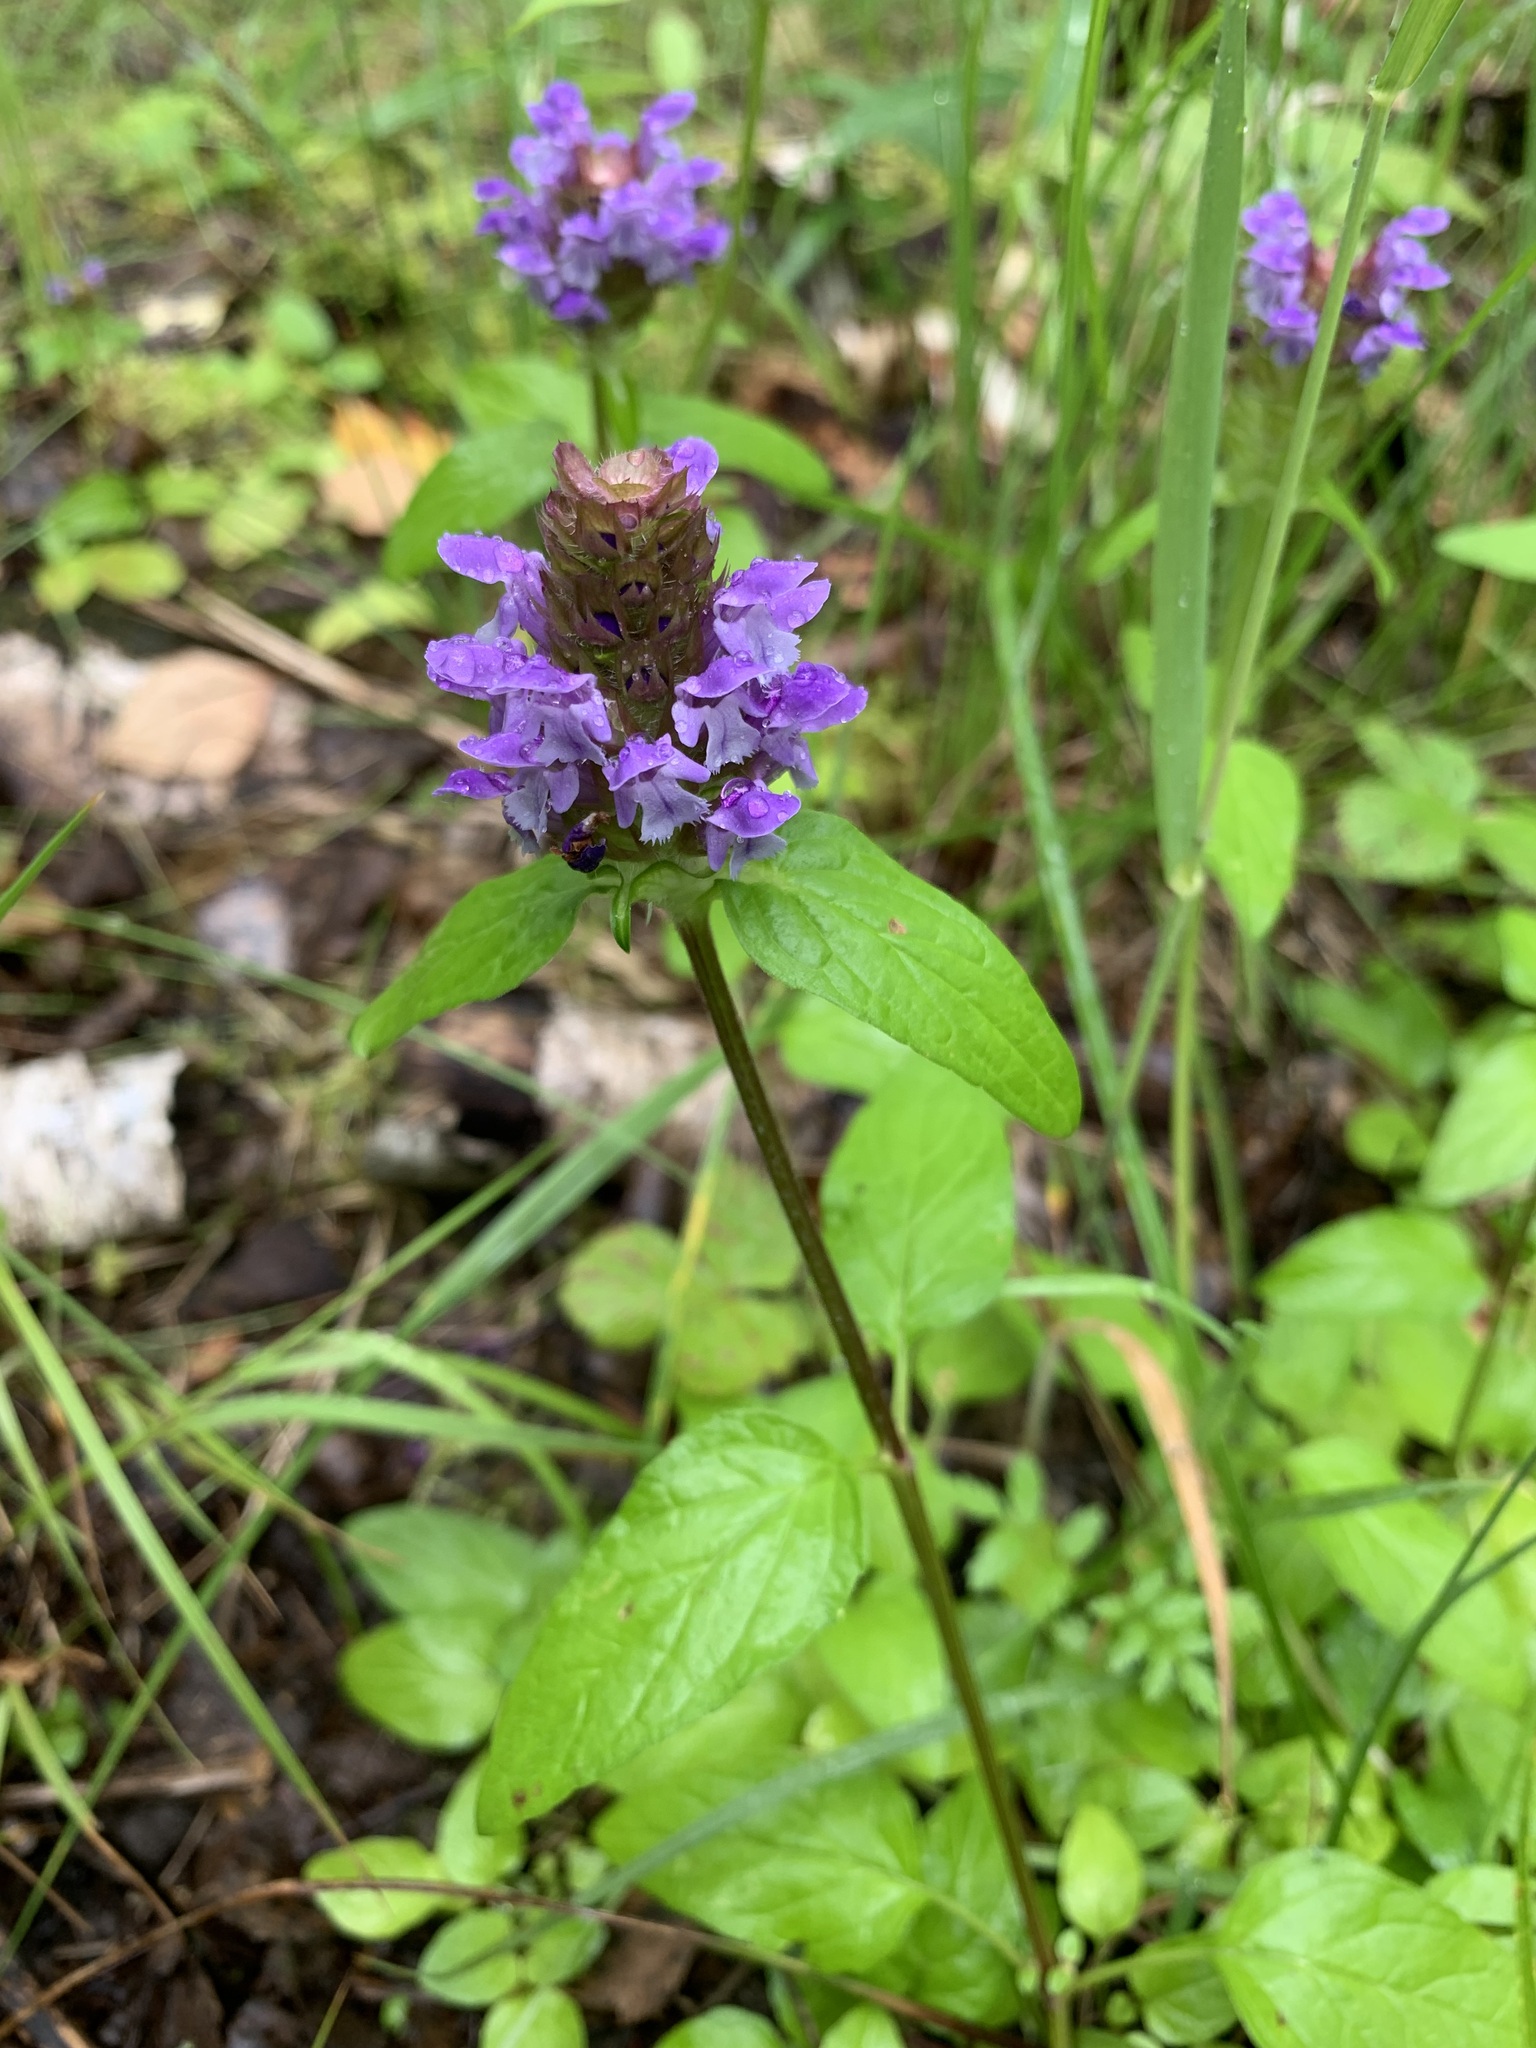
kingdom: Plantae
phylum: Tracheophyta
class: Magnoliopsida
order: Lamiales
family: Lamiaceae
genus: Prunella
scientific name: Prunella vulgaris
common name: Heal-all
